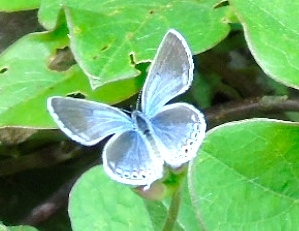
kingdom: Animalia
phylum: Arthropoda
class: Insecta
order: Lepidoptera
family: Lycaenidae
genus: Celastrina
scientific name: Celastrina
